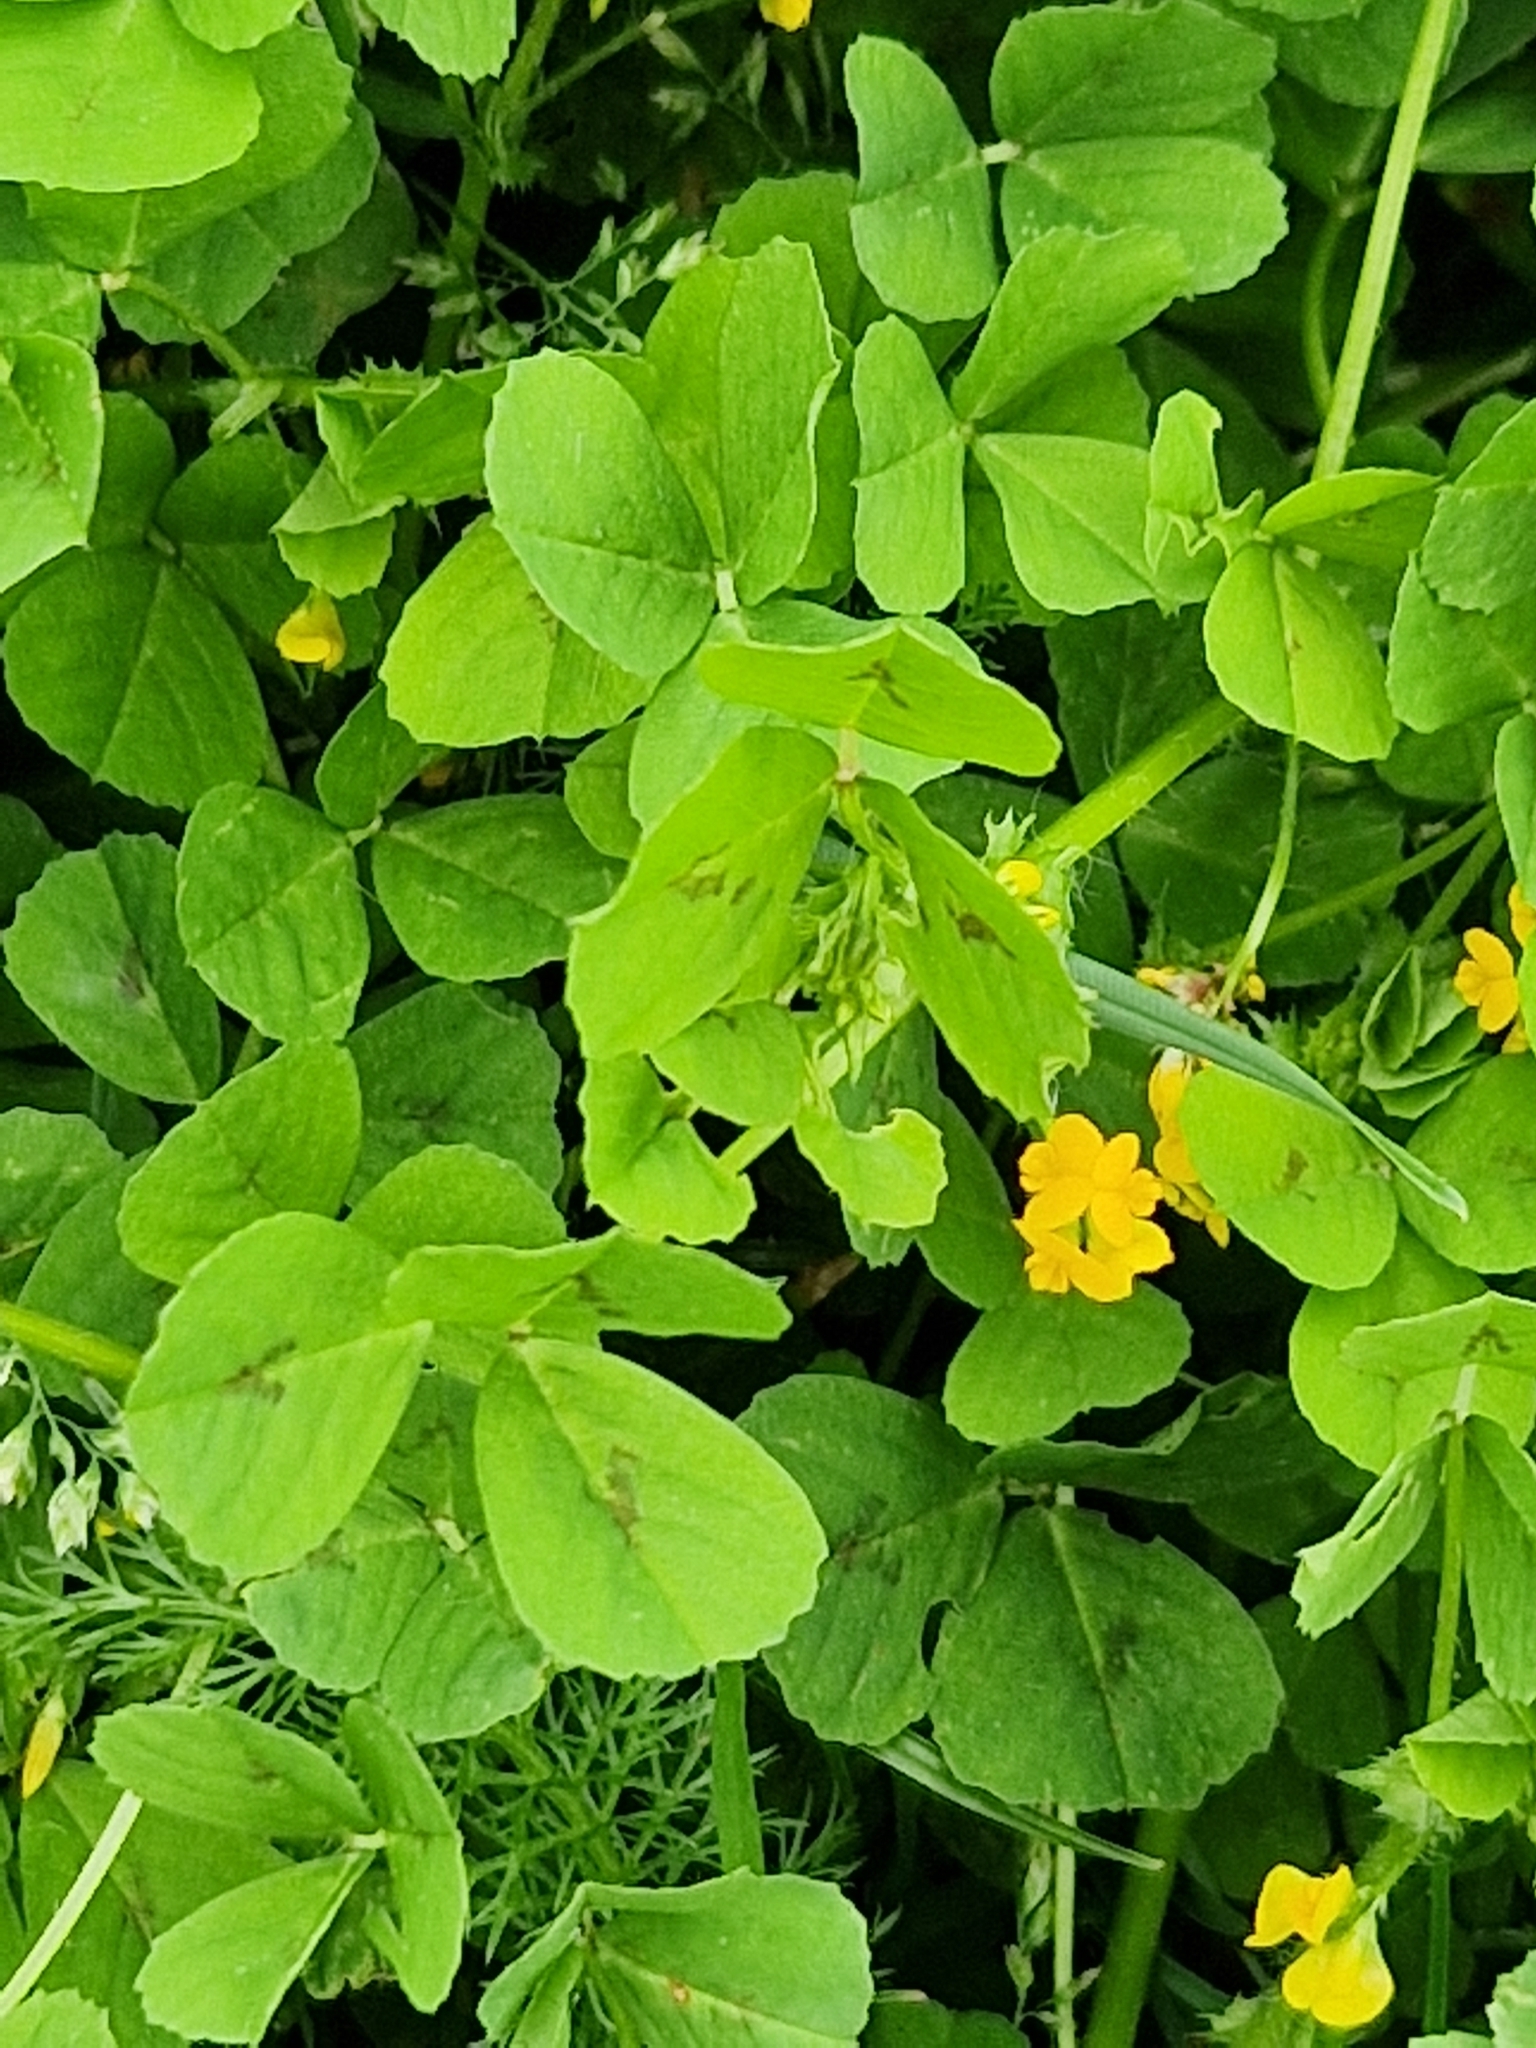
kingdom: Plantae
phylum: Tracheophyta
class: Magnoliopsida
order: Fabales
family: Fabaceae
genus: Medicago
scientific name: Medicago arabica
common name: Spotted medick
